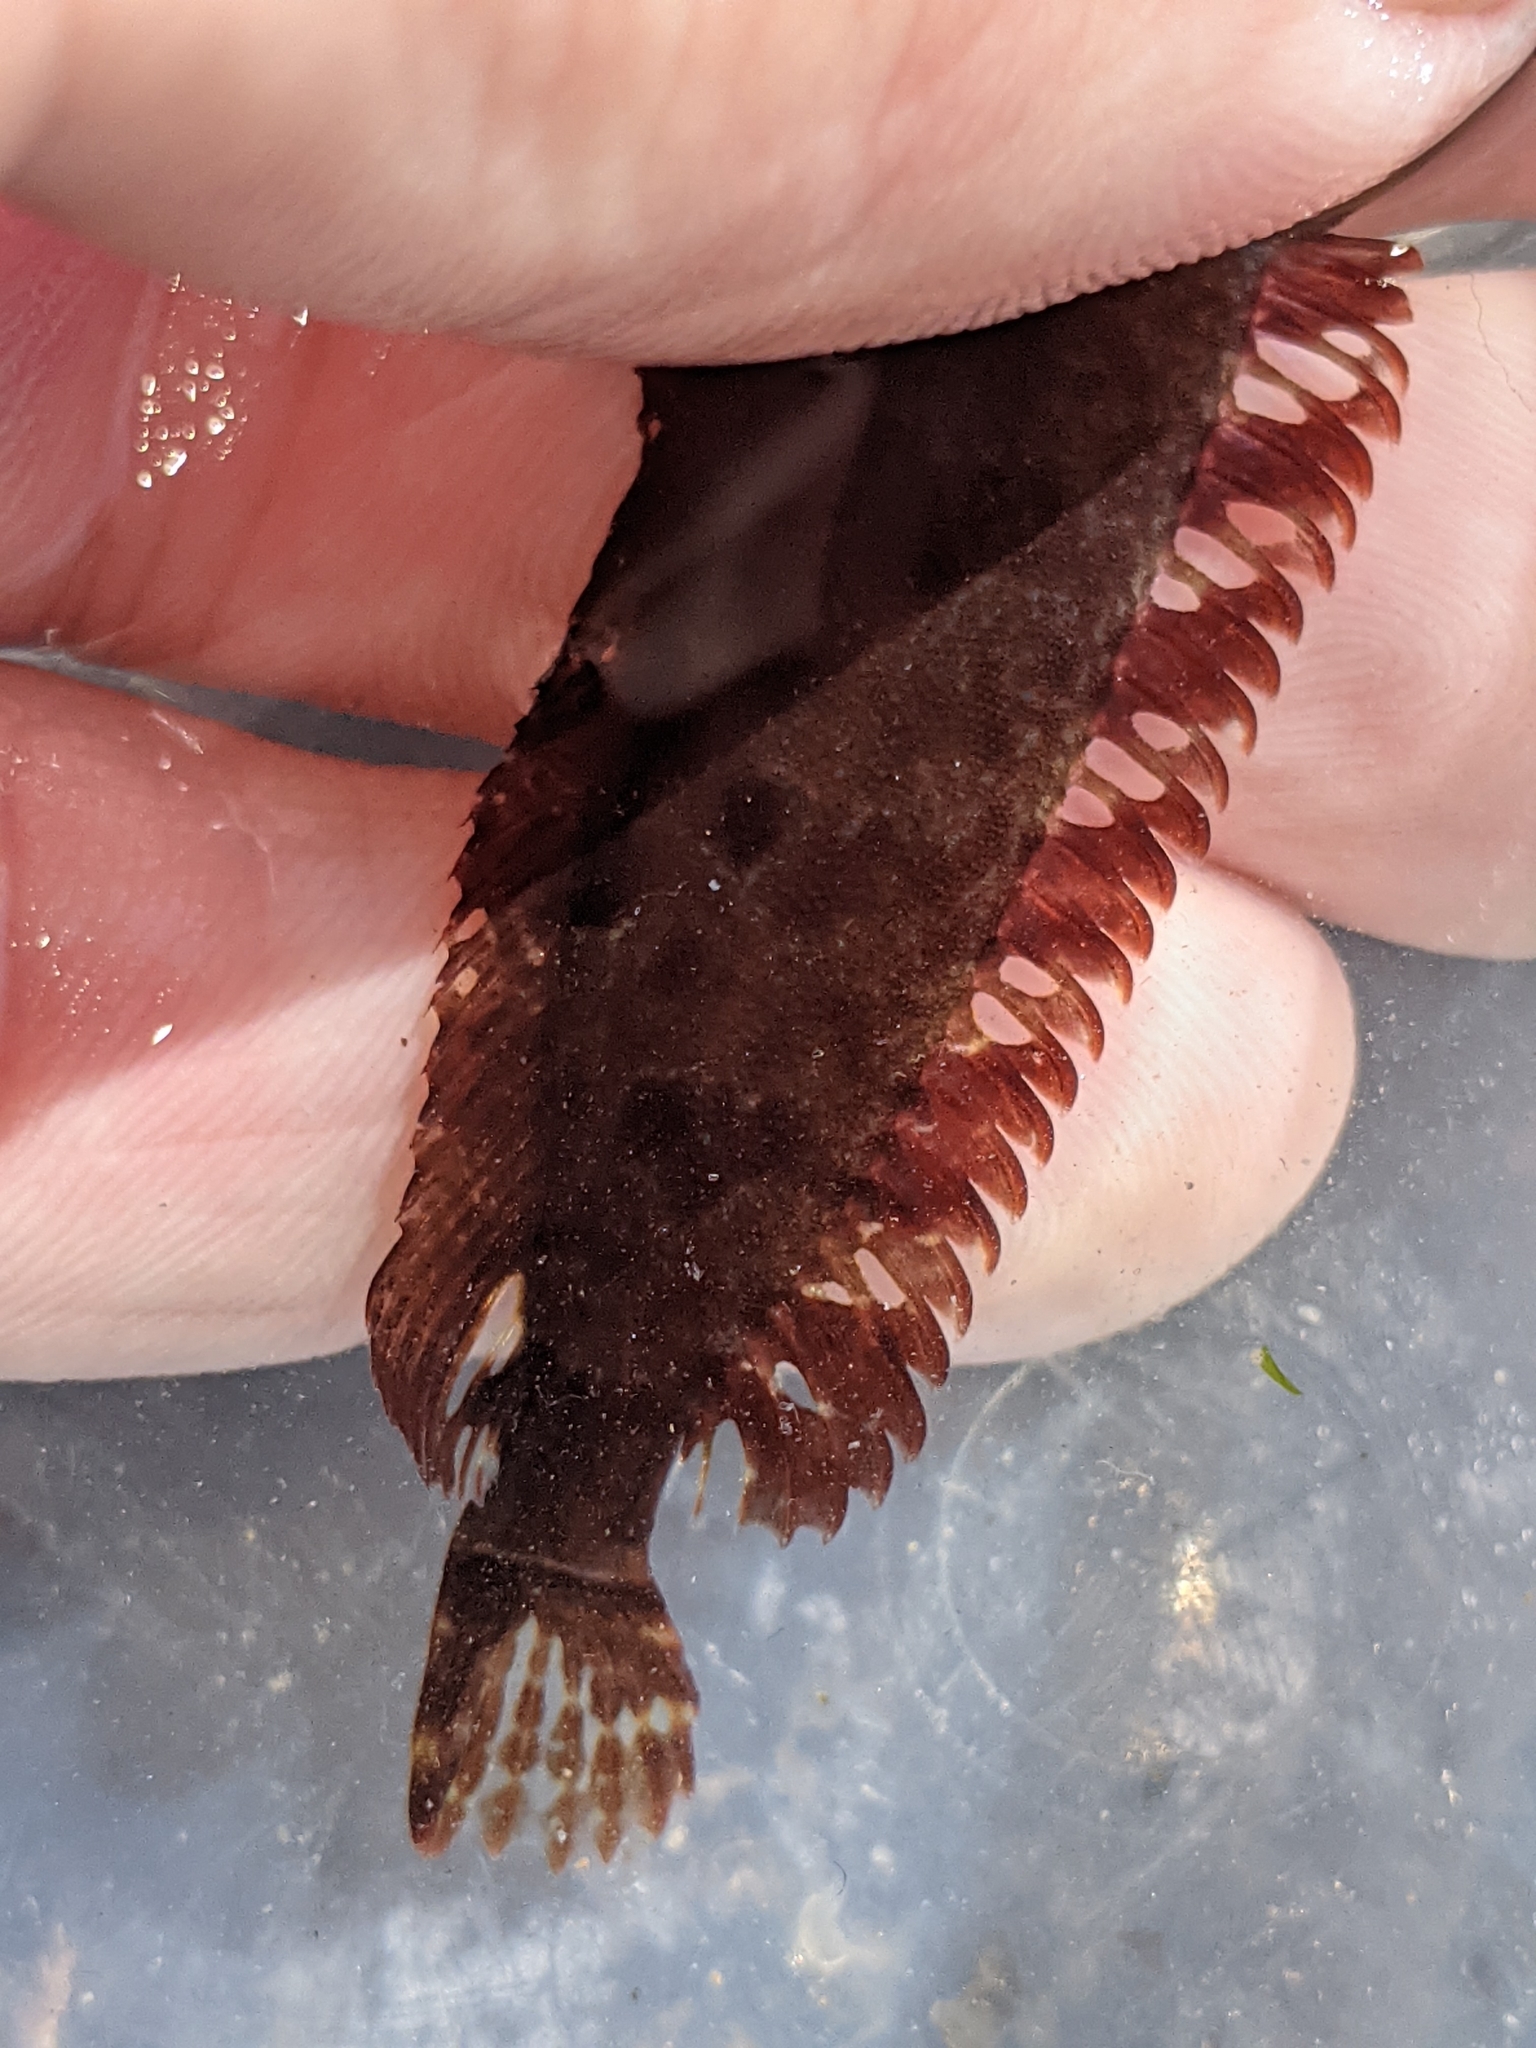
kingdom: Animalia
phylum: Chordata
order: Perciformes
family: Clinidae
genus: Gibbonsia
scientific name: Gibbonsia metzi
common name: Striped kelpfish
